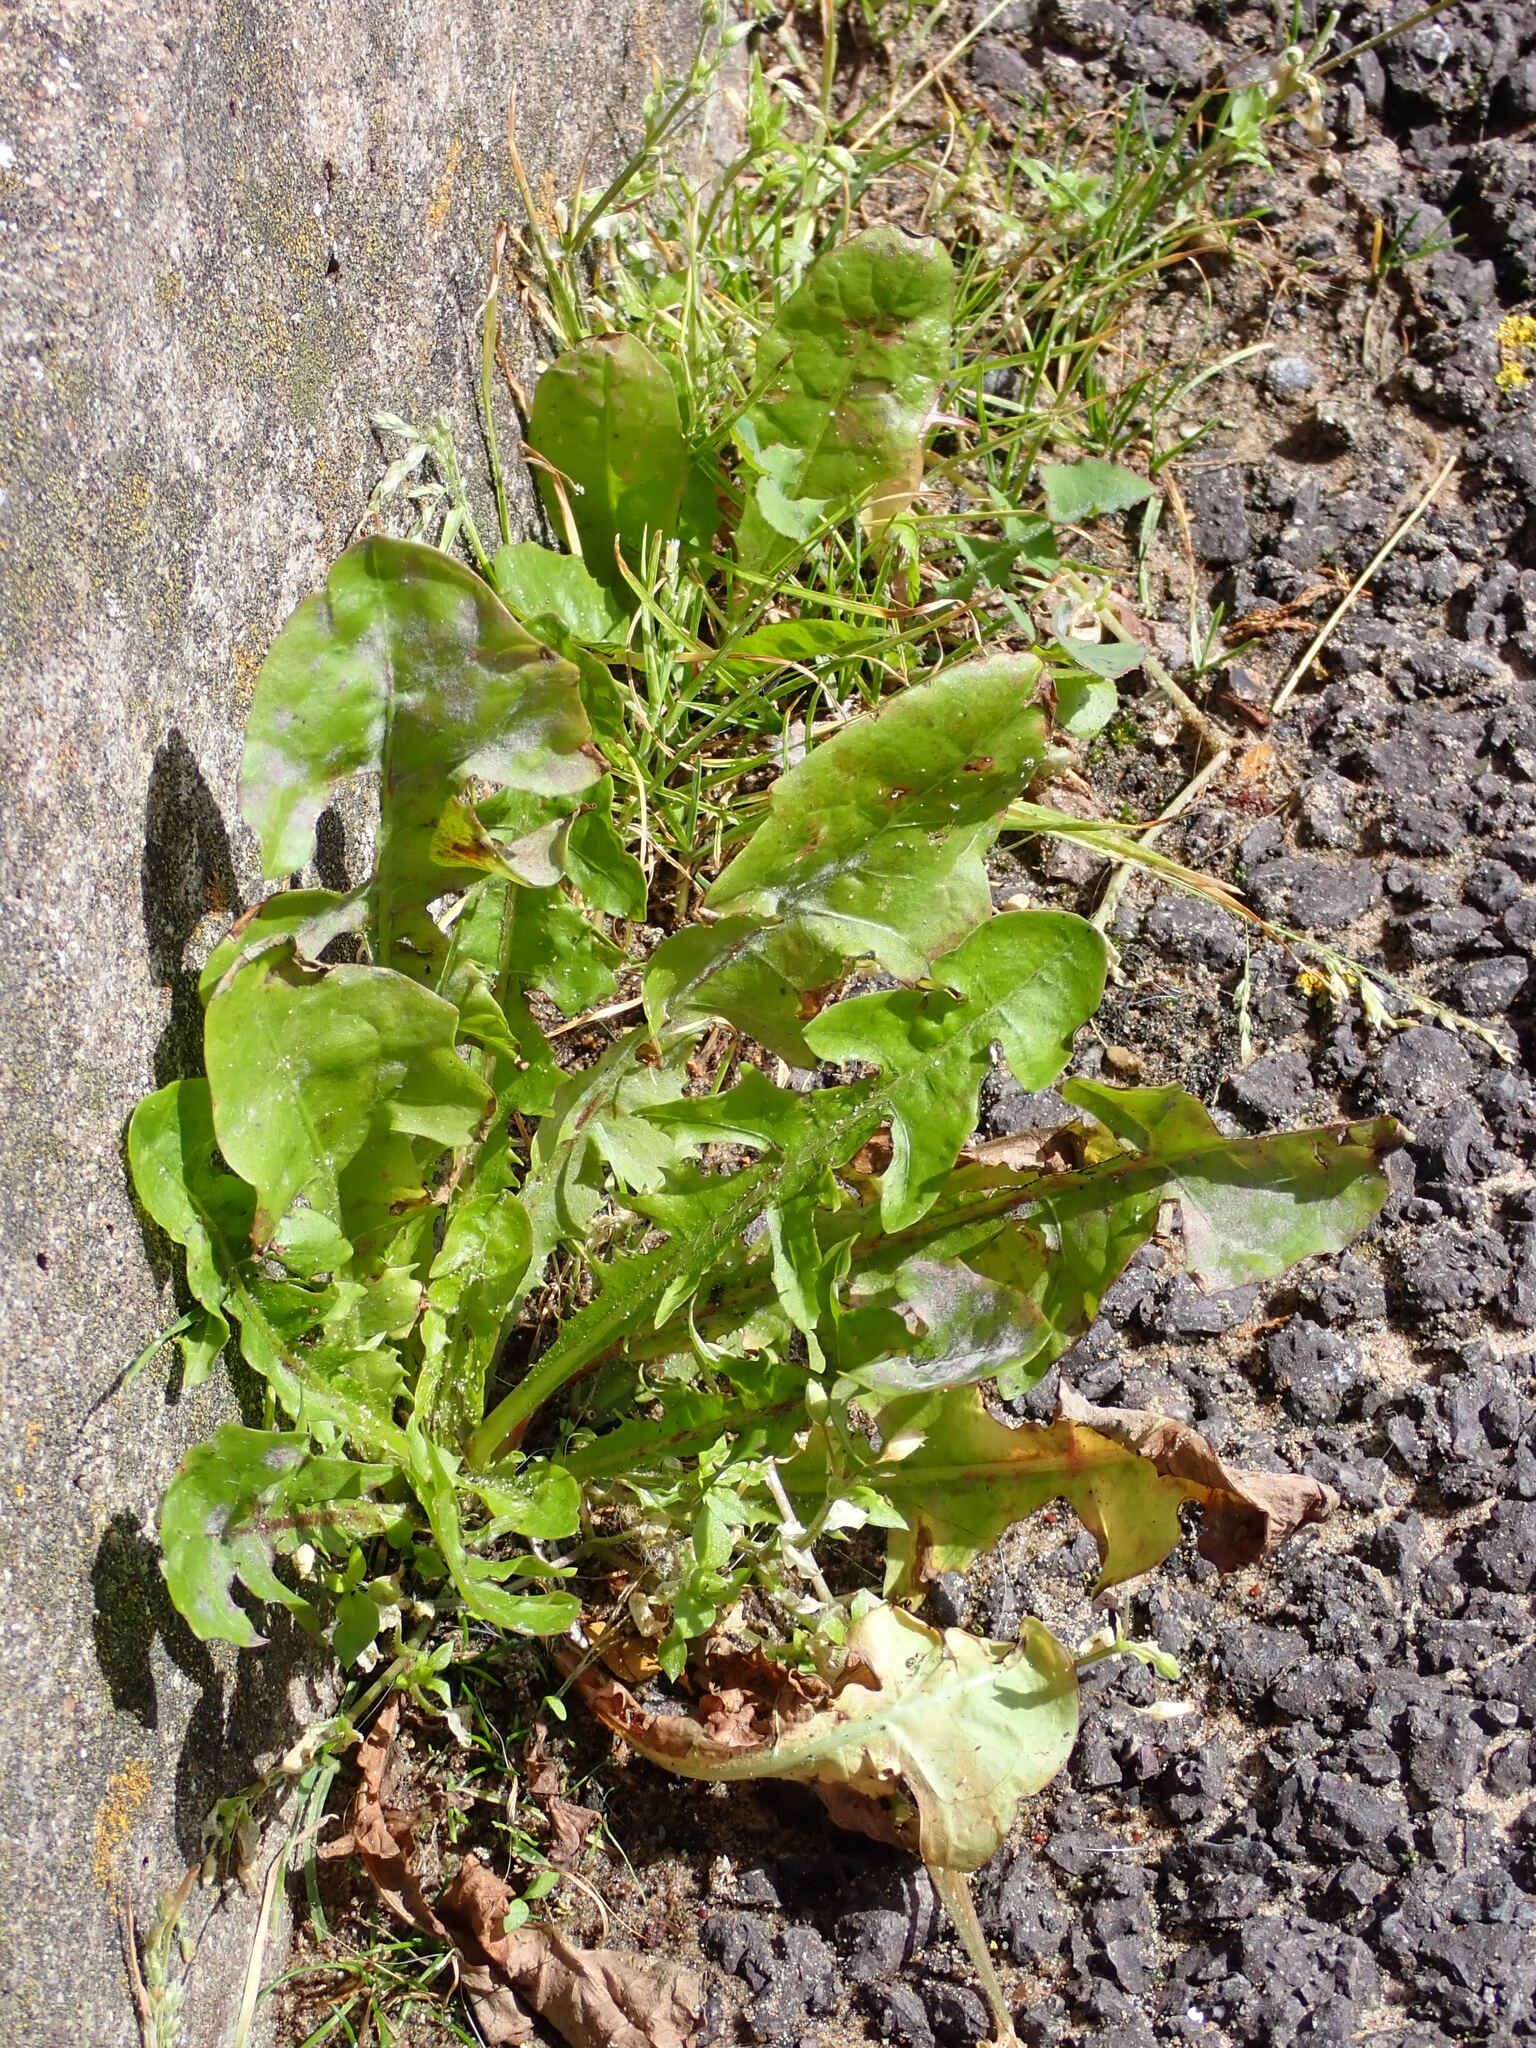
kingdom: Plantae
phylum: Tracheophyta
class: Magnoliopsida
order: Asterales
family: Asteraceae
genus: Taraxacum
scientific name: Taraxacum officinale
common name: Common dandelion
